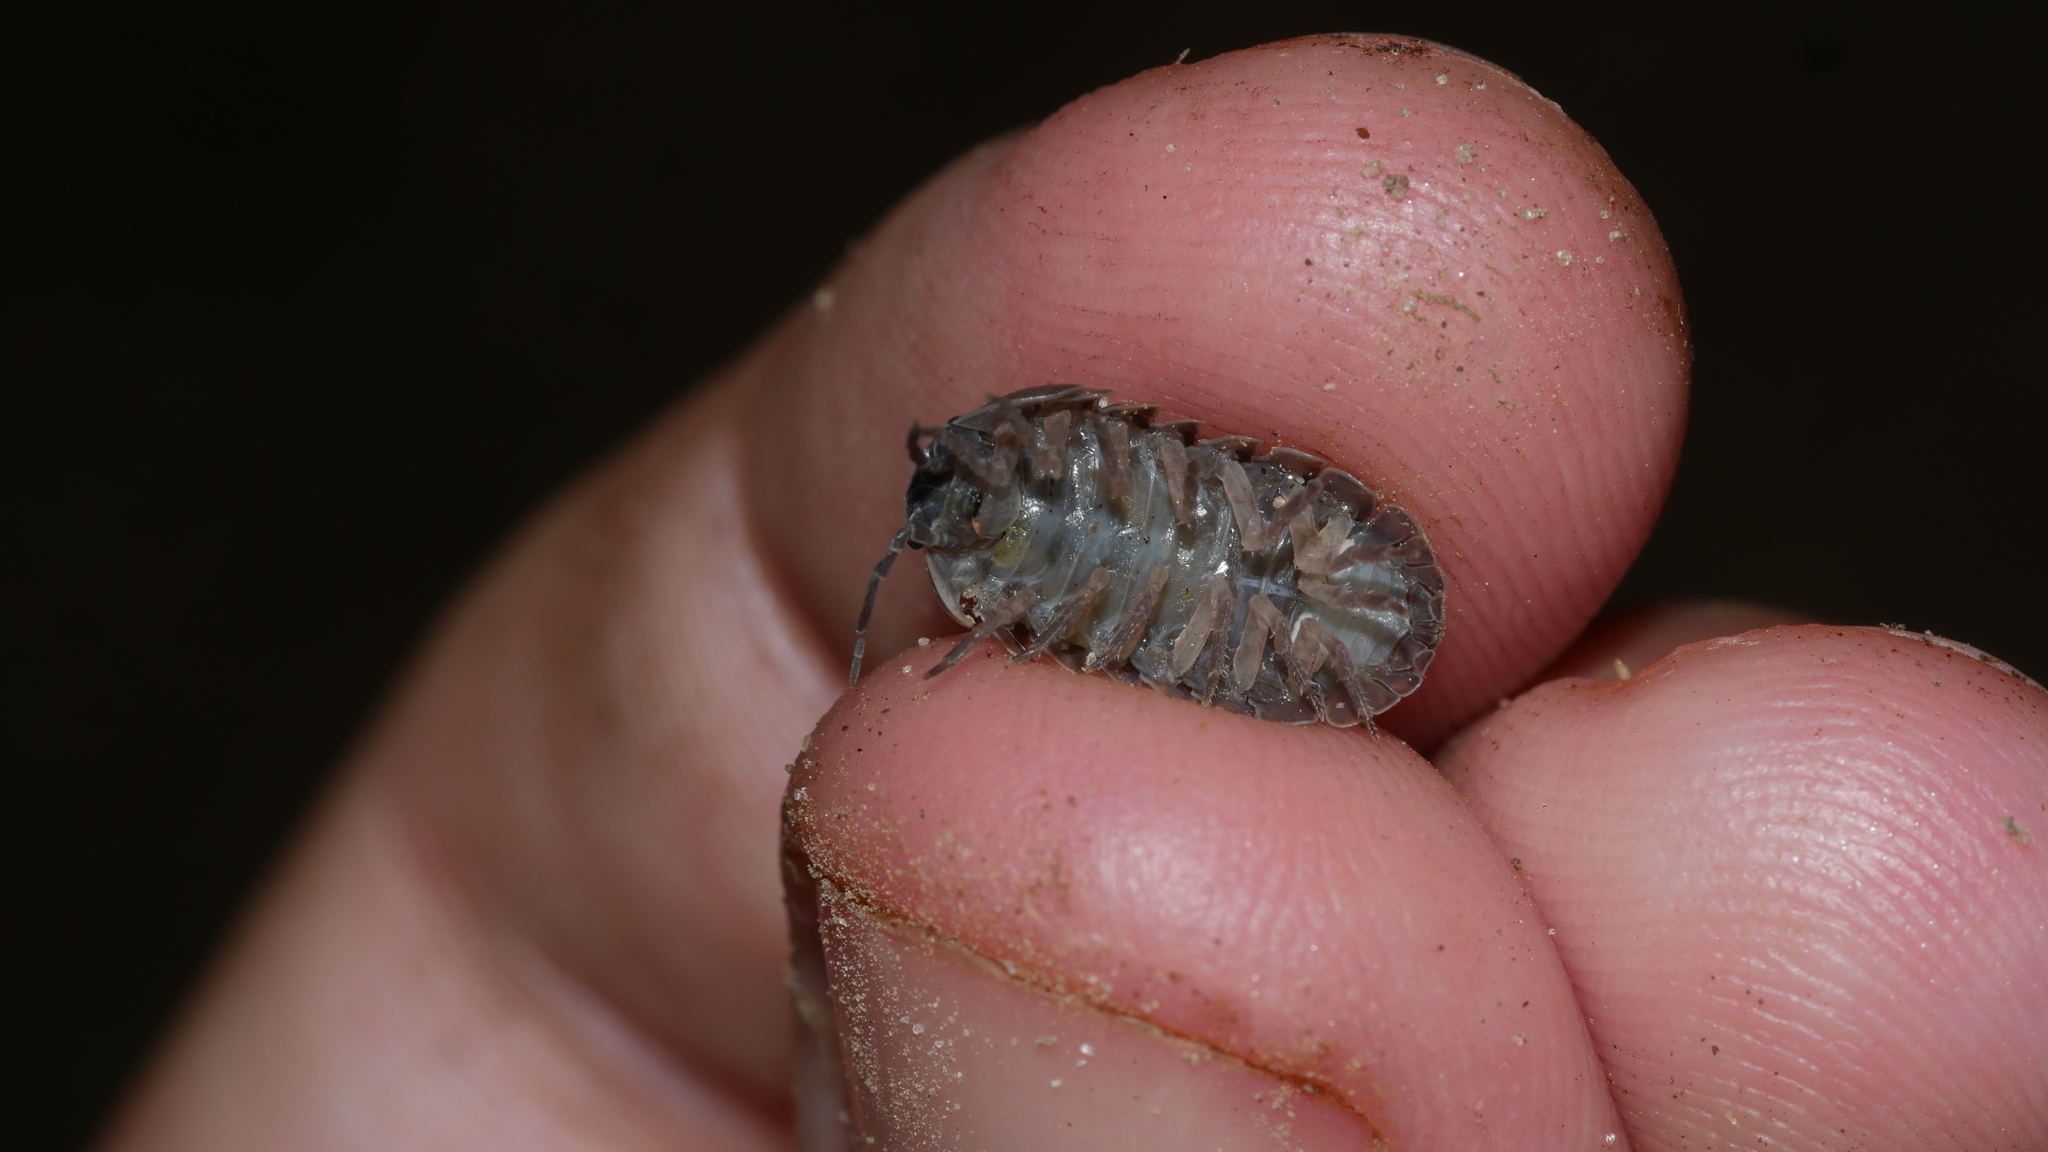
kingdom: Animalia
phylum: Arthropoda
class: Malacostraca
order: Isopoda
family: Armadillidiidae
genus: Armadillidium
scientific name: Armadillidium vulgare
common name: Common pill woodlouse
